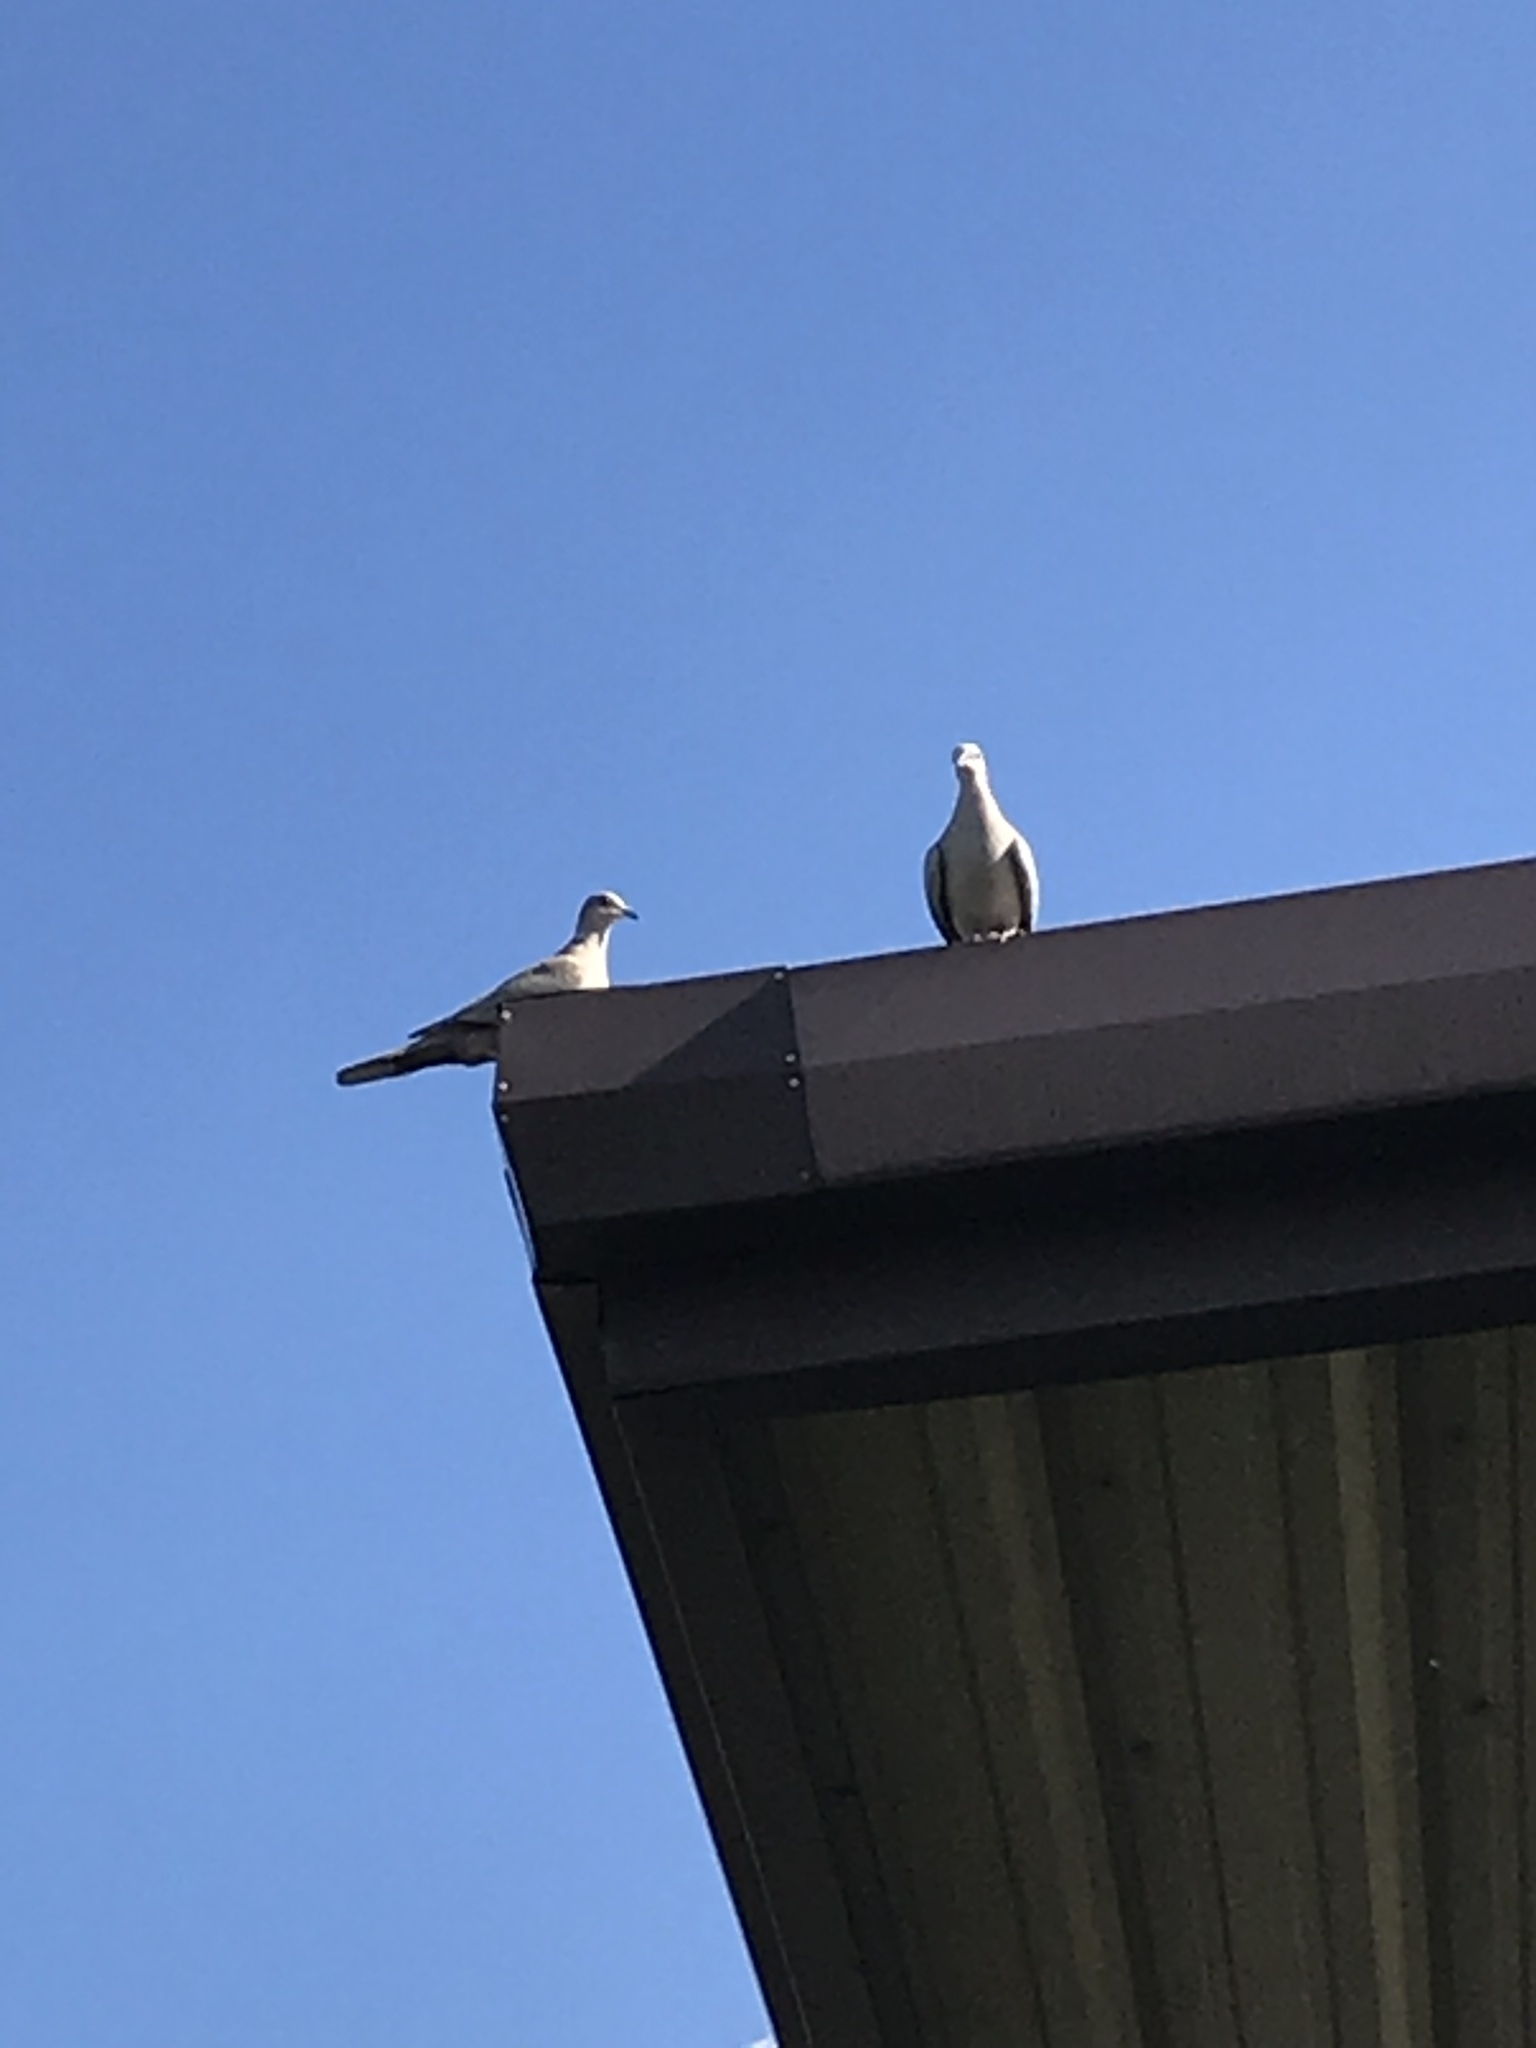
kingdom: Animalia
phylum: Chordata
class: Aves
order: Columbiformes
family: Columbidae
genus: Streptopelia
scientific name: Streptopelia decaocto
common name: Eurasian collared dove
